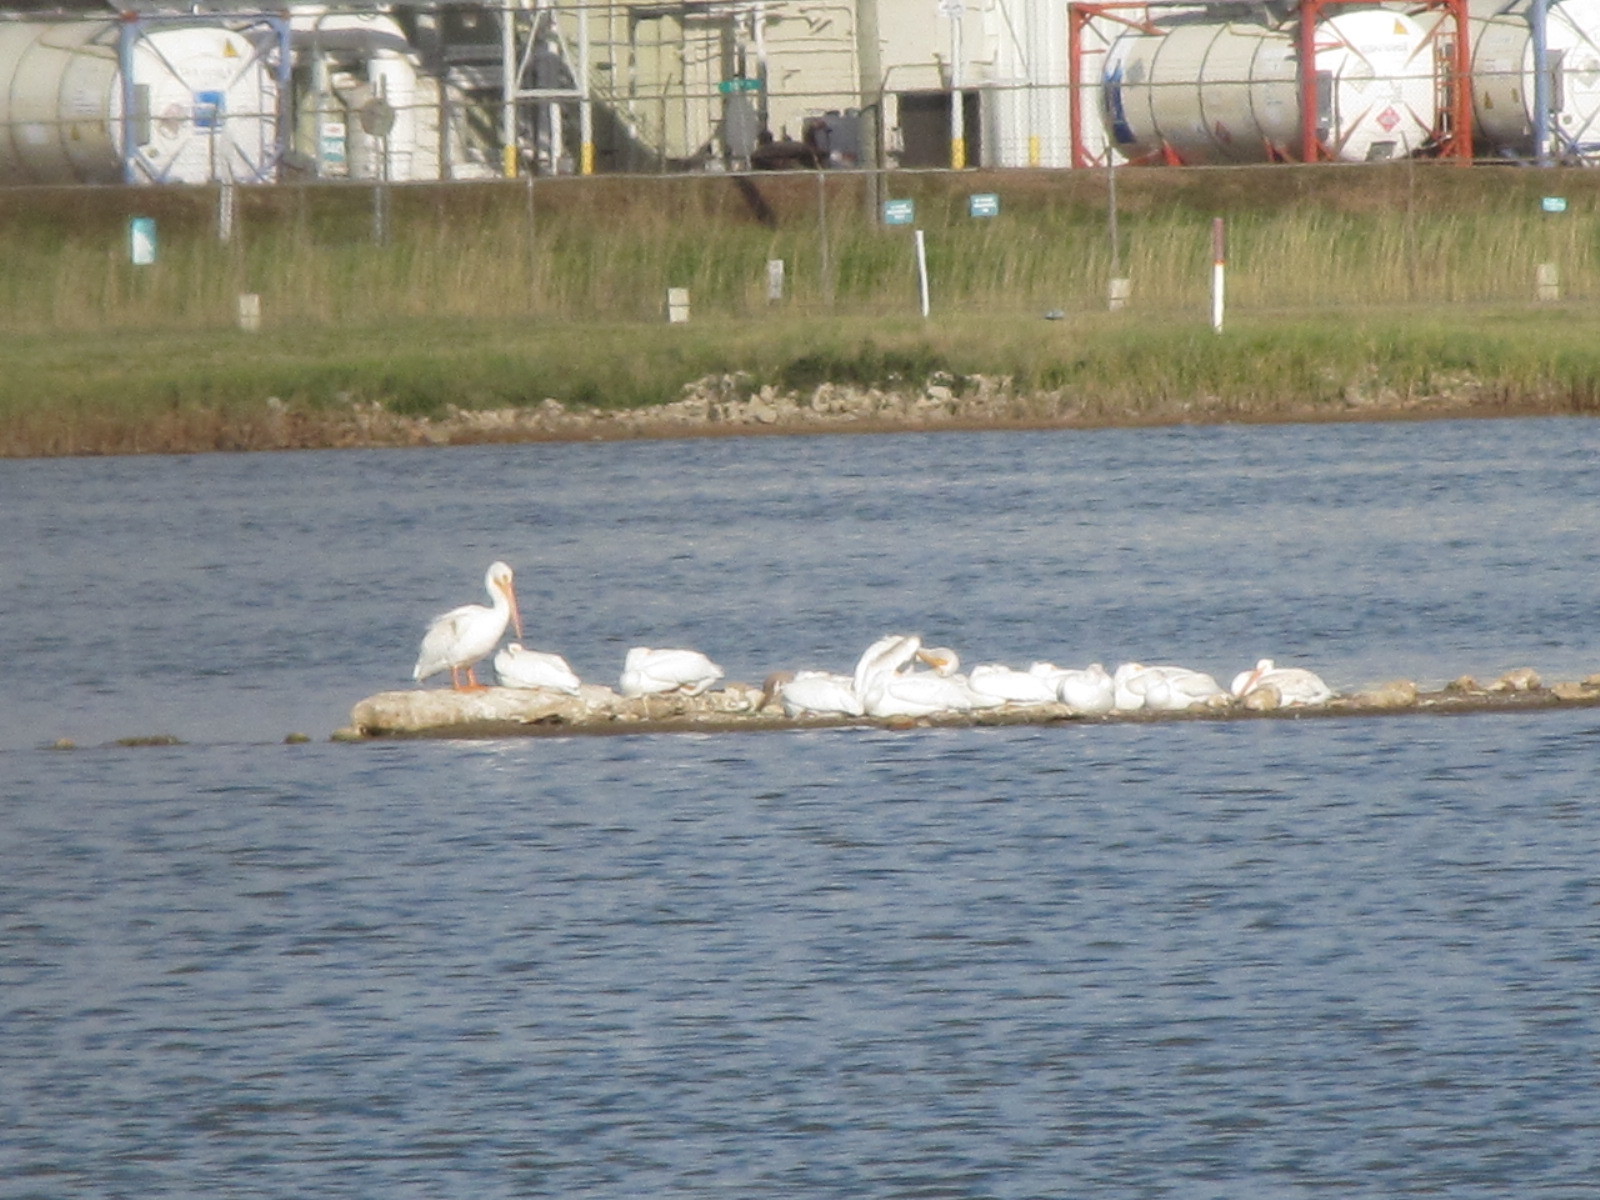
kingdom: Animalia
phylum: Chordata
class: Aves
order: Pelecaniformes
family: Pelecanidae
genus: Pelecanus
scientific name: Pelecanus erythrorhynchos
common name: American white pelican
